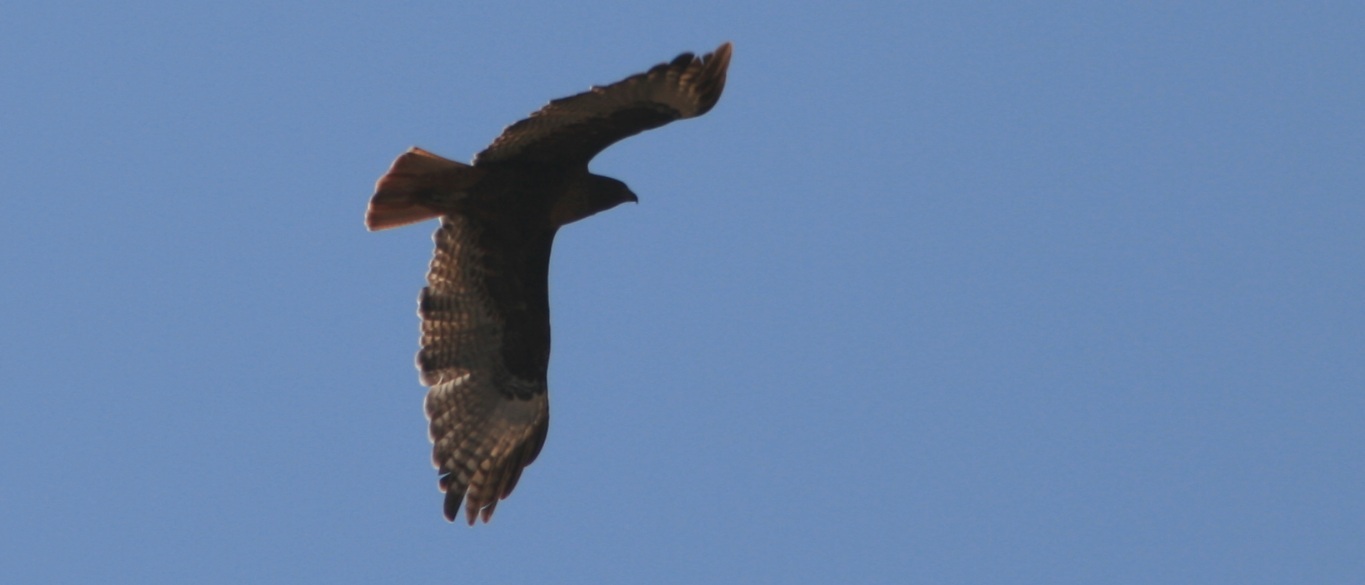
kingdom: Animalia
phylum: Chordata
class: Aves
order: Accipitriformes
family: Accipitridae
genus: Buteo
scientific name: Buteo jamaicensis
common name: Red-tailed hawk
